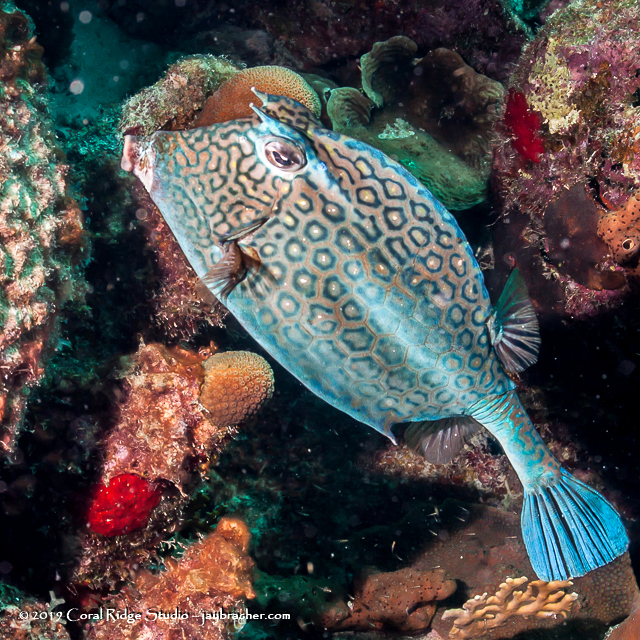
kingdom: Animalia
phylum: Chordata
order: Tetraodontiformes
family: Ostraciidae
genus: Acanthostracion
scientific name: Acanthostracion polygonius
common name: Honeycomb cowfish
